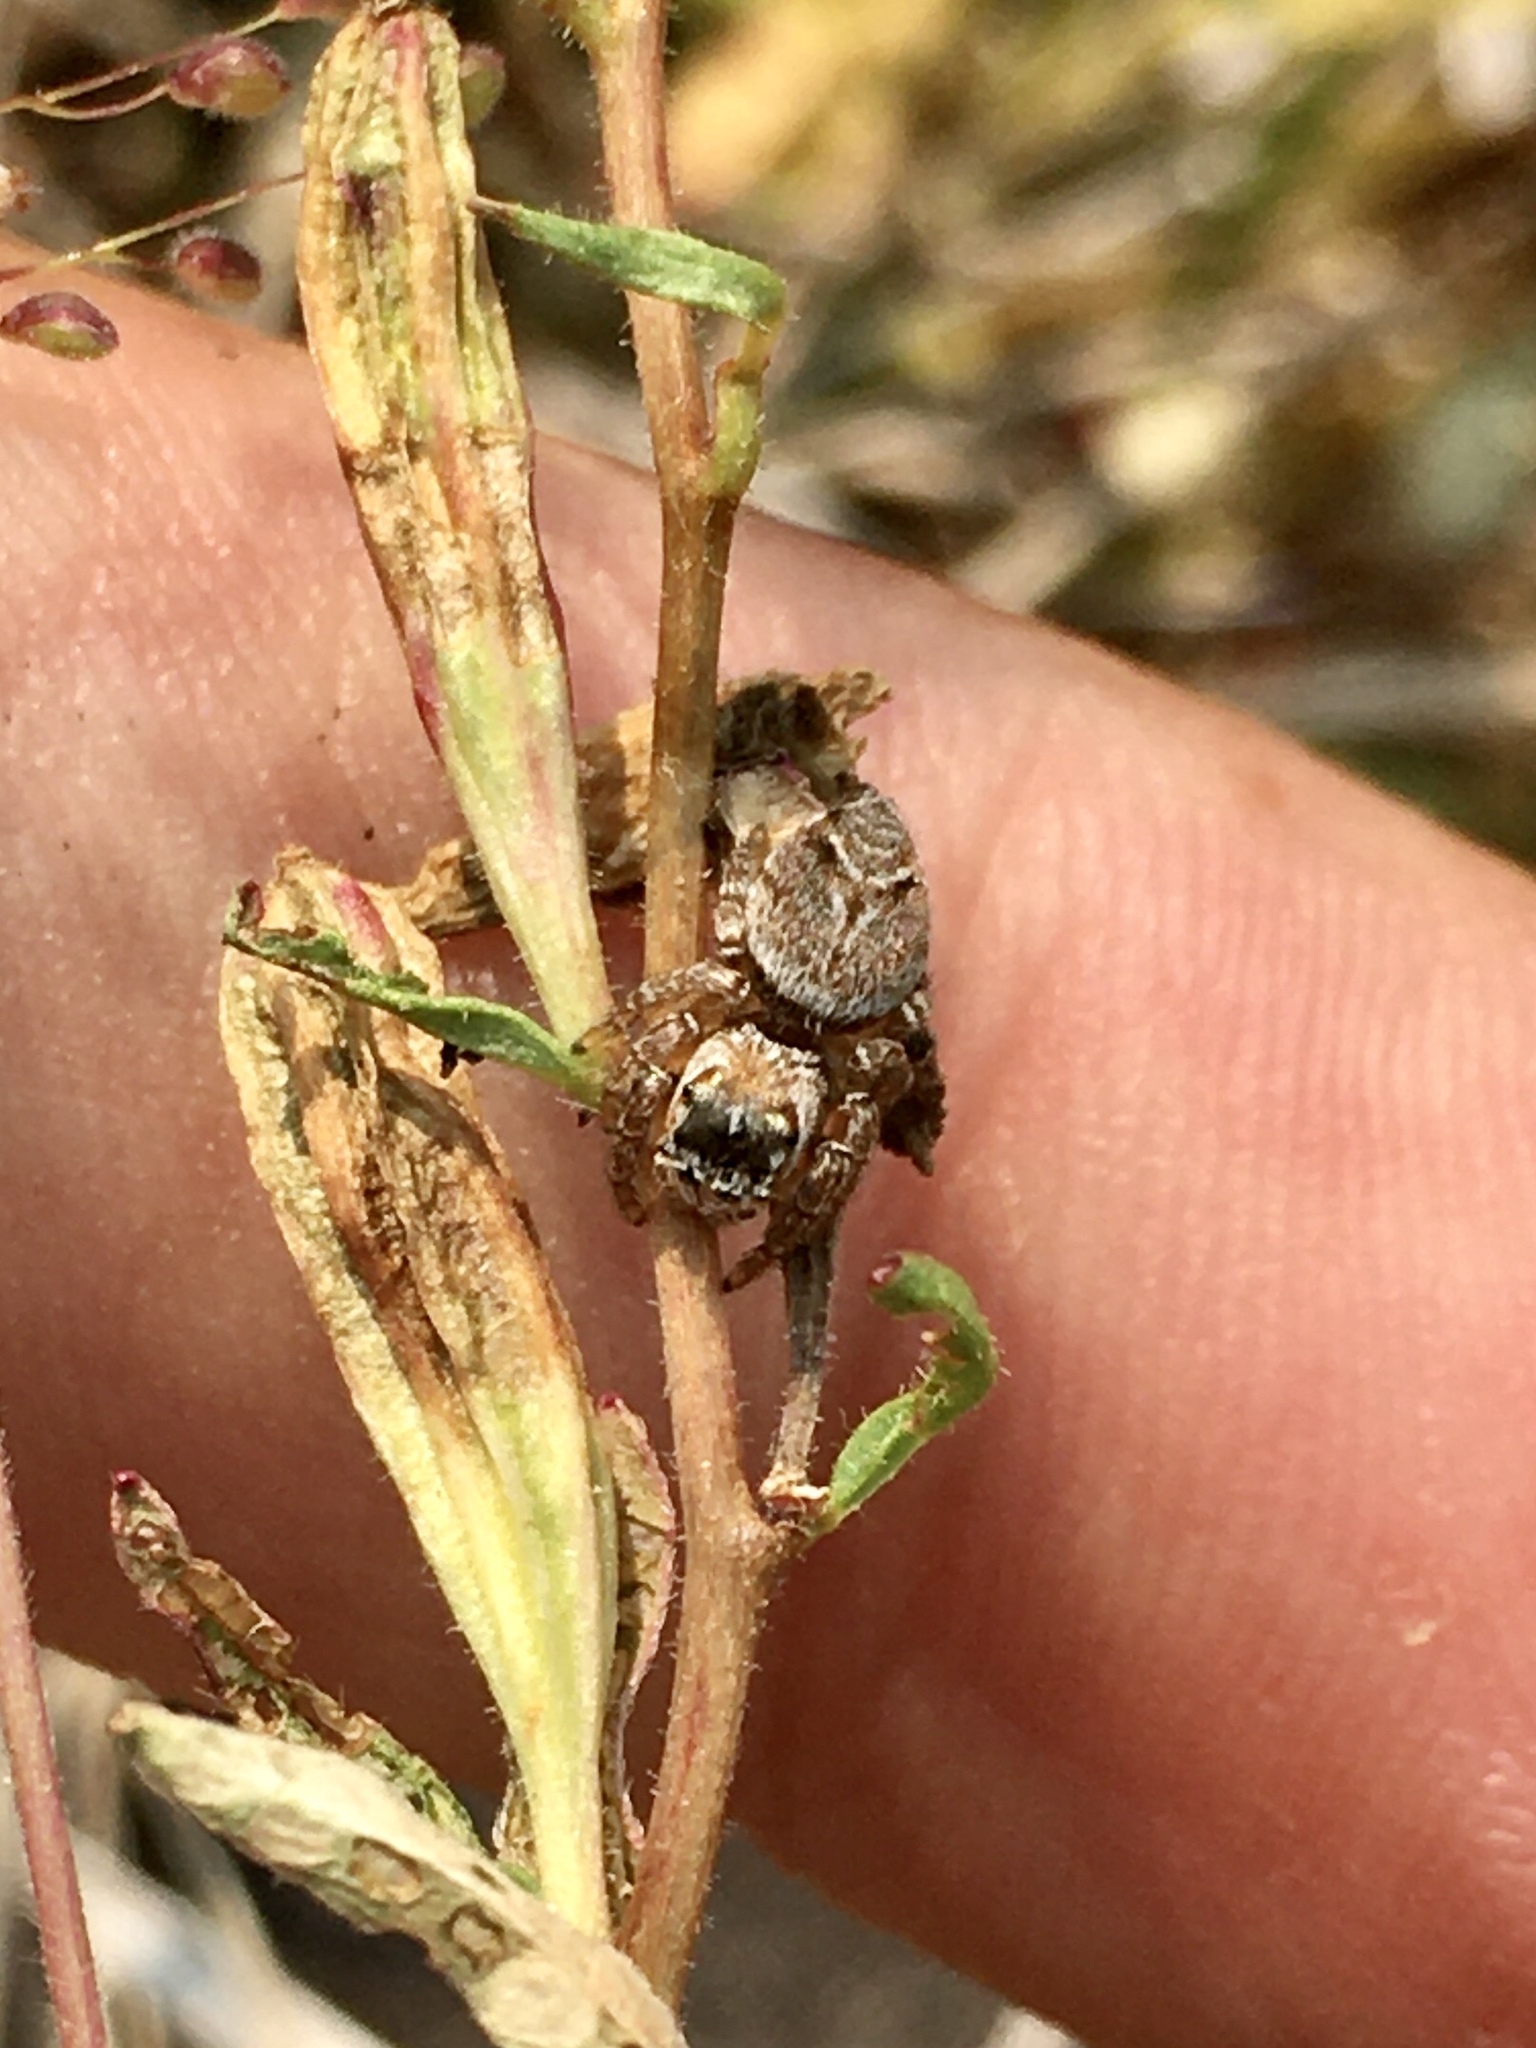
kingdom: Animalia
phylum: Arthropoda
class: Arachnida
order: Araneae
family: Salticidae
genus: Evarcha
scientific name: Evarcha hoyi
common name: Hoy's jumping spider
